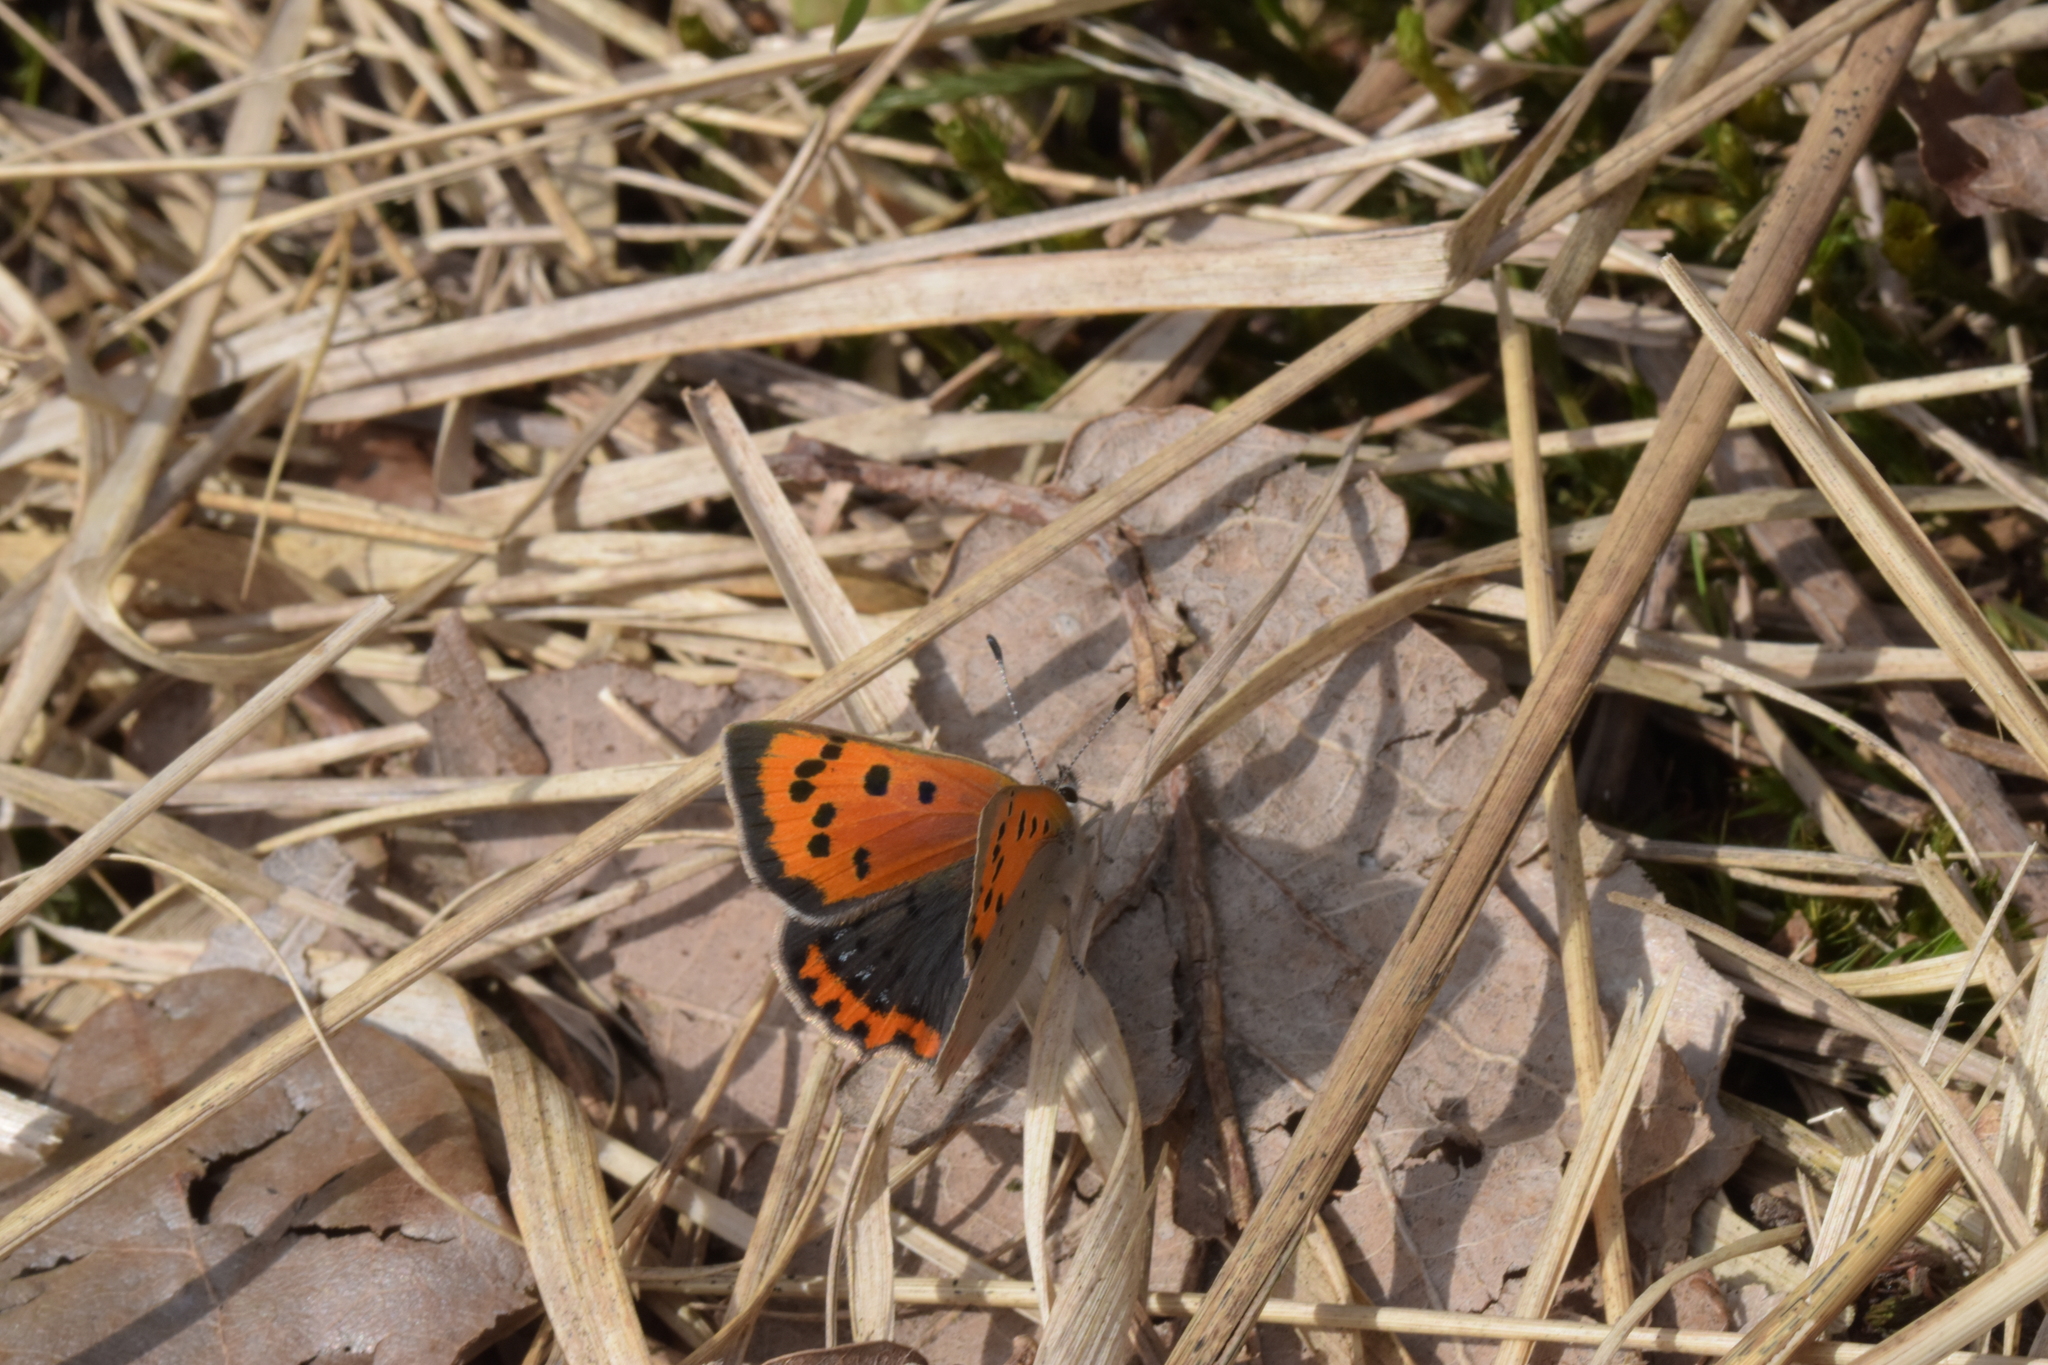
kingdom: Animalia
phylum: Arthropoda
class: Insecta
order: Lepidoptera
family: Lycaenidae
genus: Lycaena
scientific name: Lycaena phlaeas
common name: Small copper
